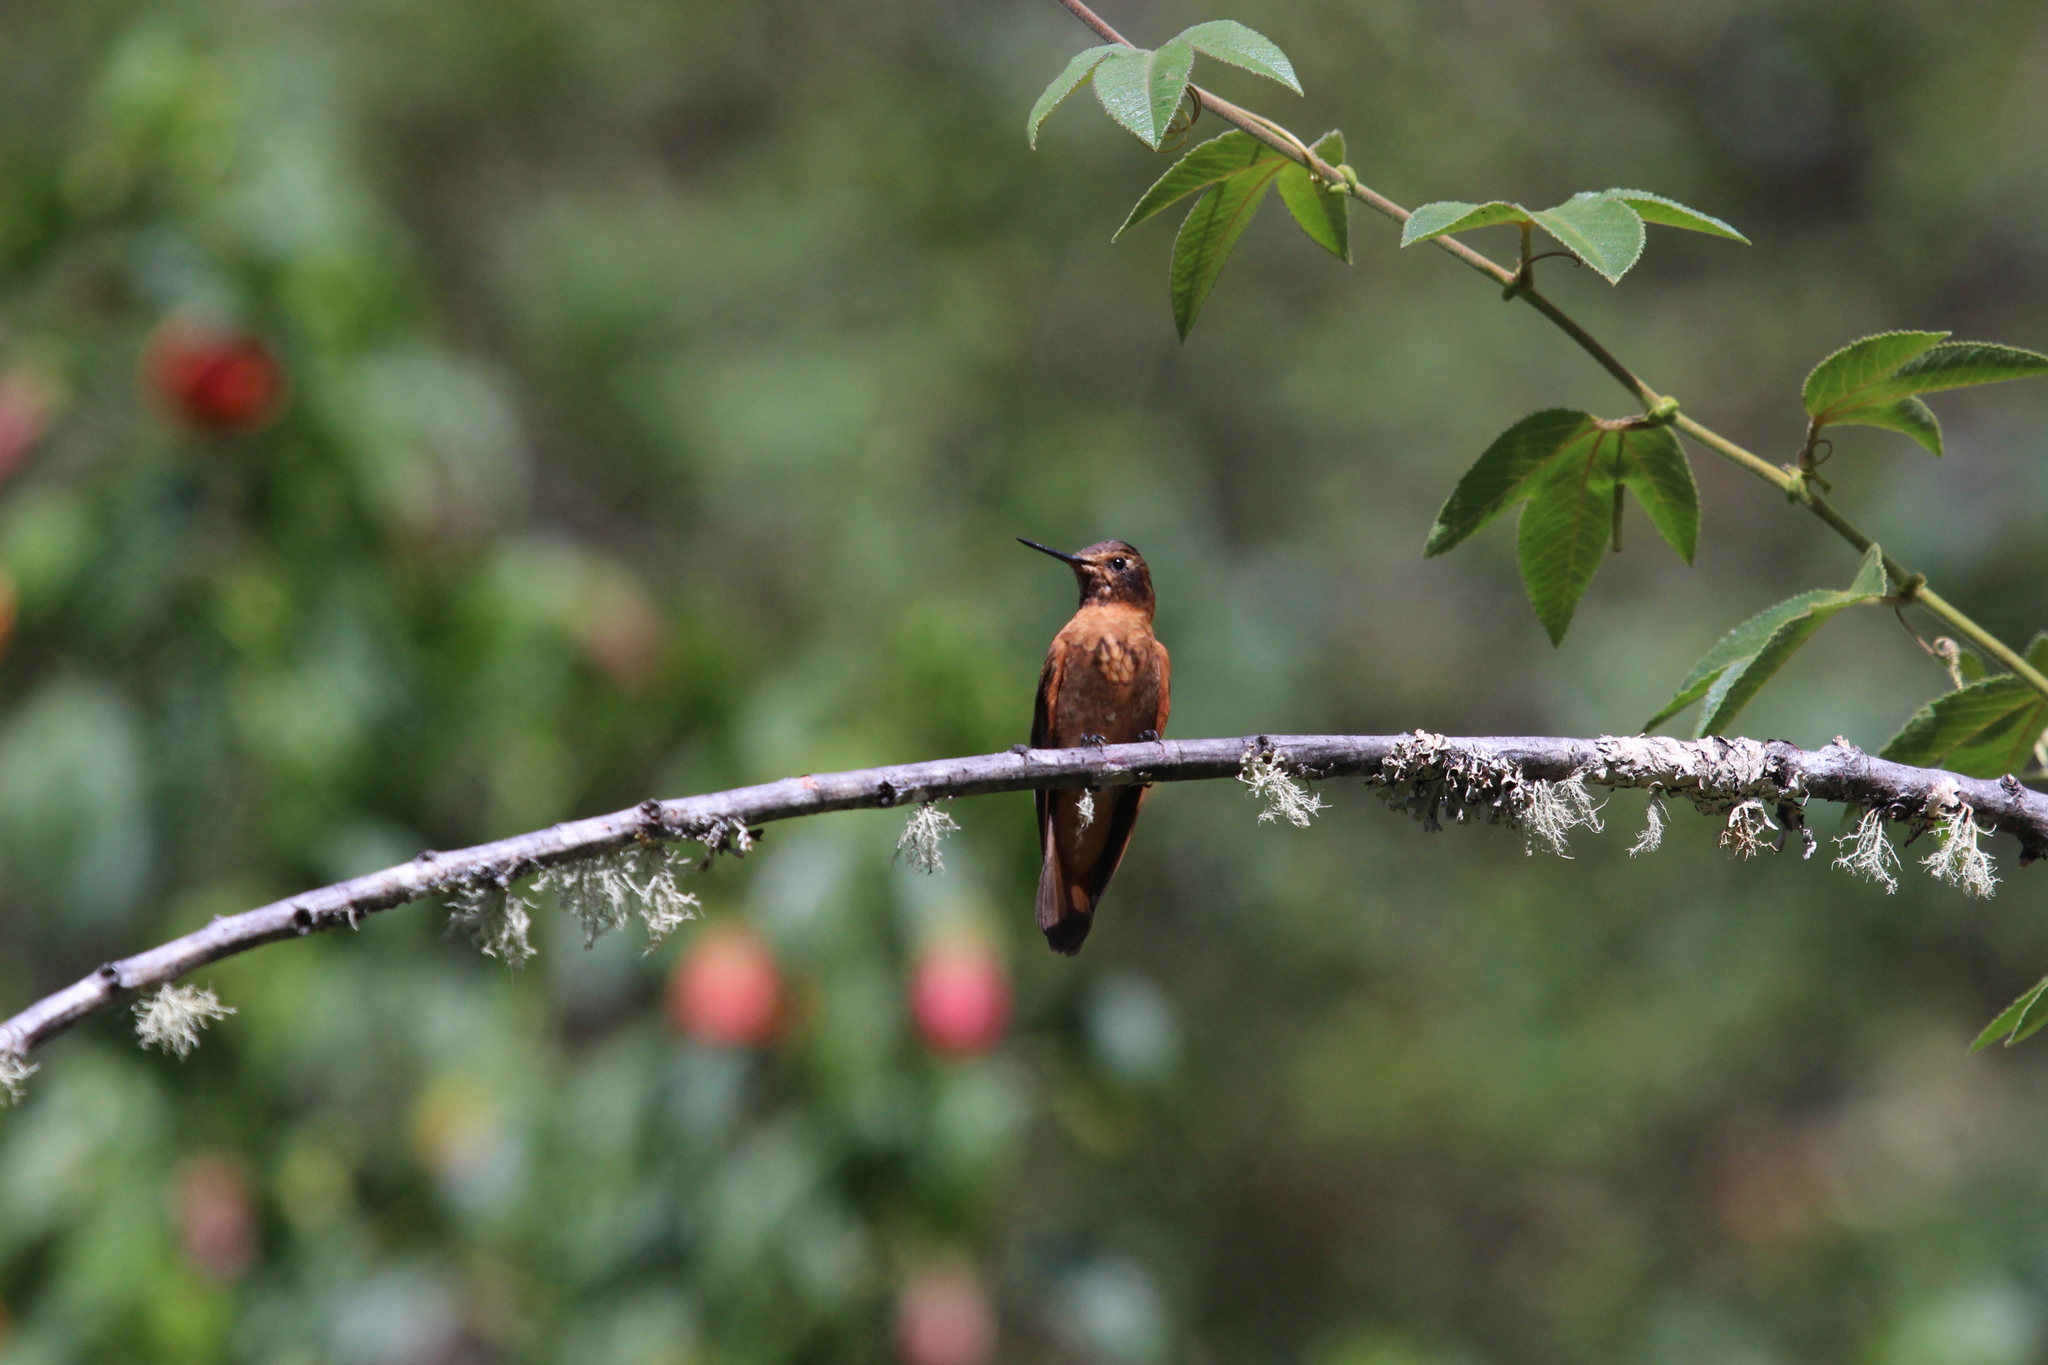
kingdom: Animalia
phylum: Chordata
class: Aves
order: Apodiformes
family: Trochilidae
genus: Aglaeactis
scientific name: Aglaeactis cupripennis
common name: Shining sunbeam
